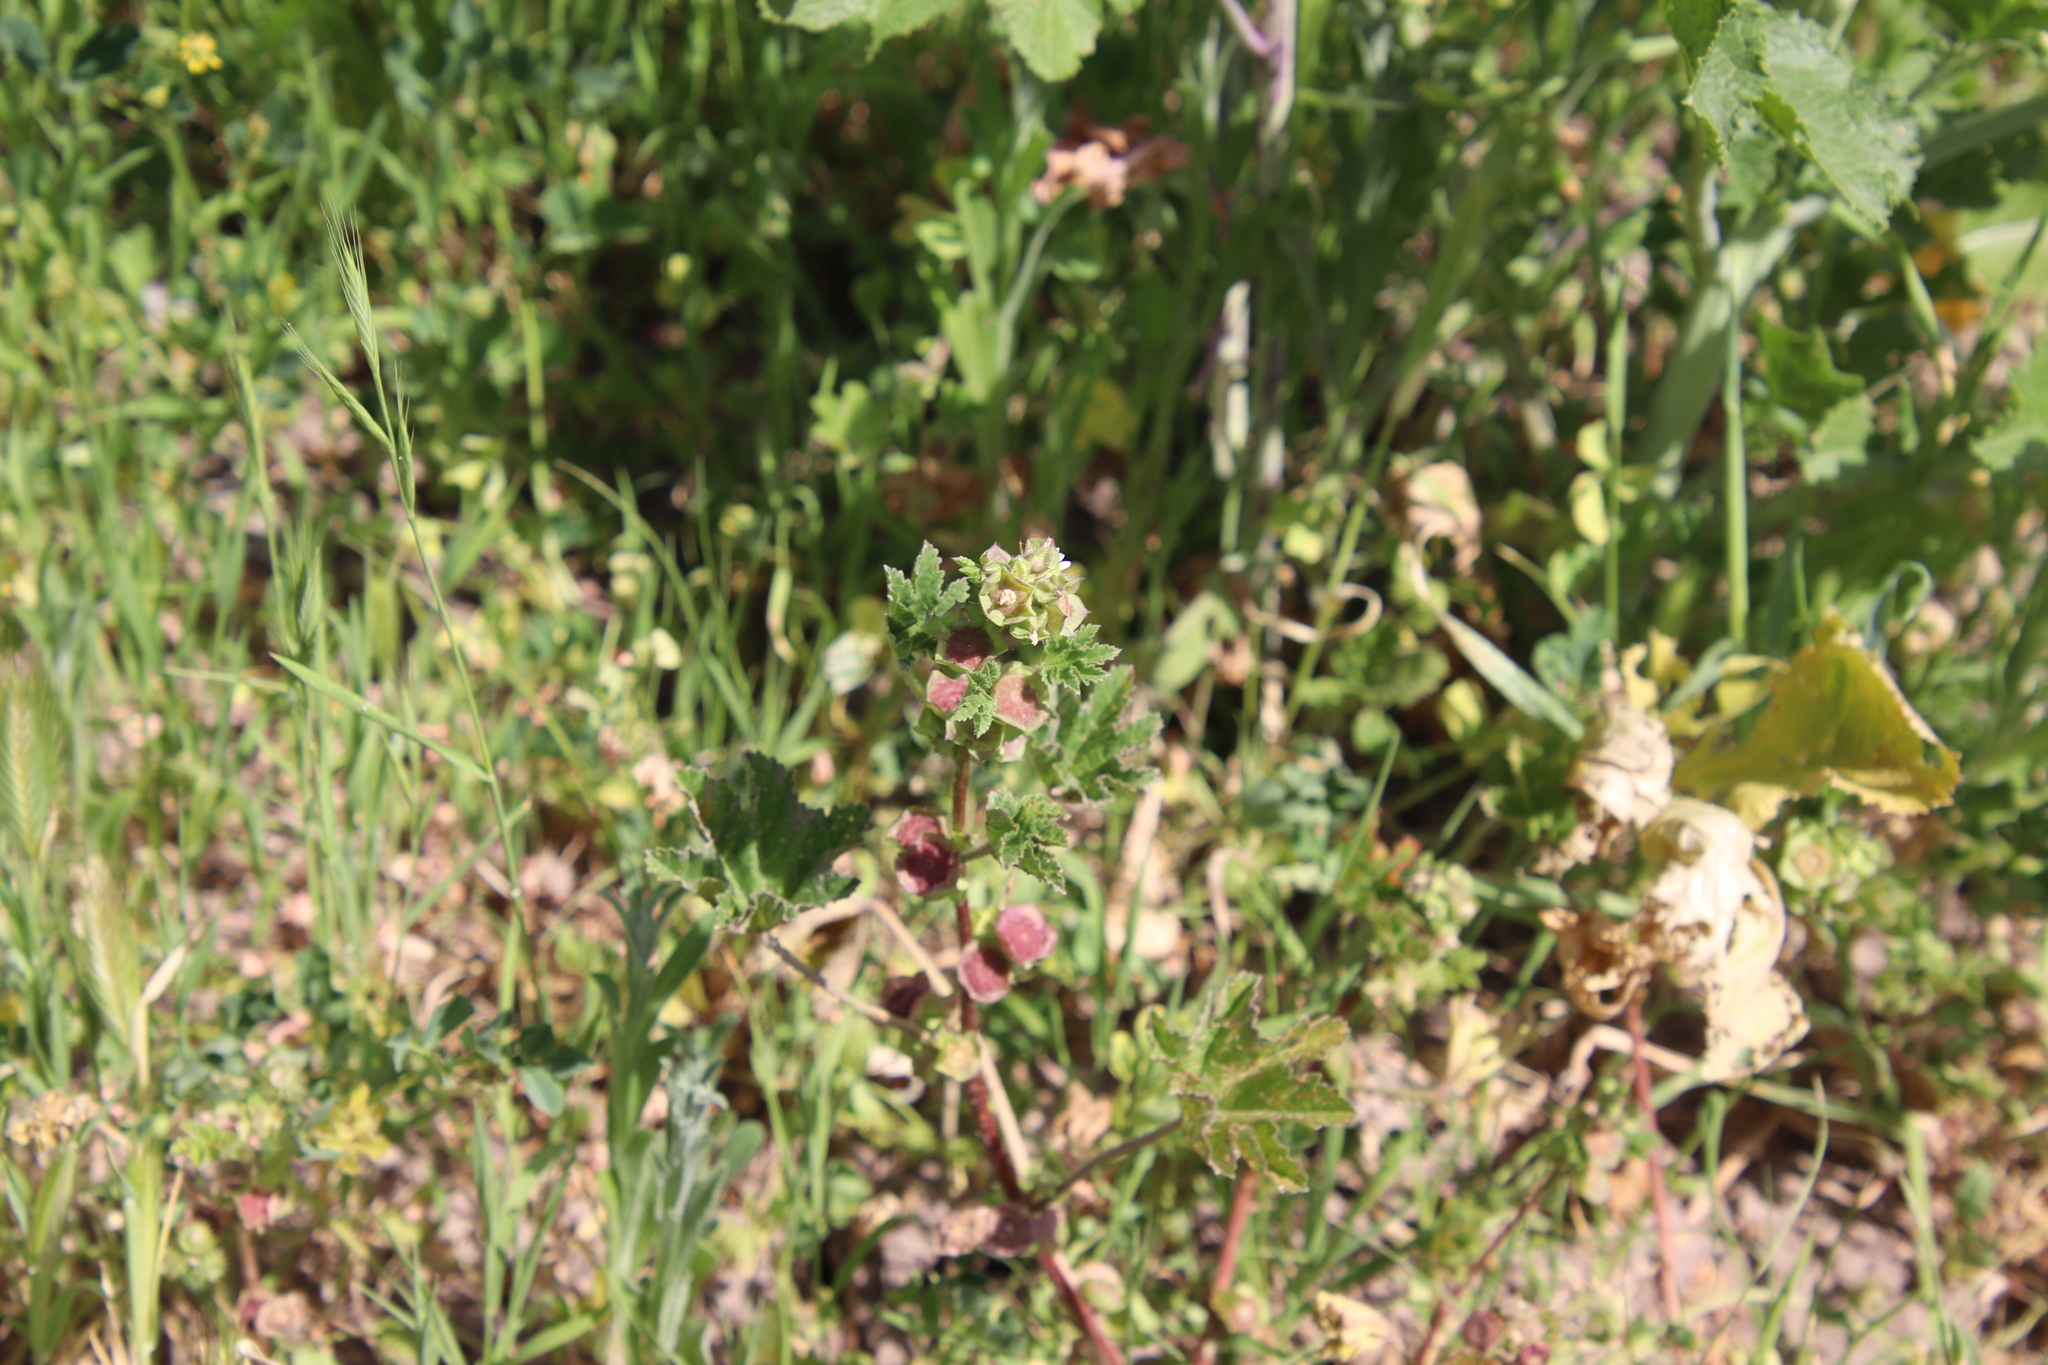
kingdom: Plantae
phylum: Tracheophyta
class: Magnoliopsida
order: Malvales
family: Malvaceae
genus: Malva
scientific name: Malva parviflora
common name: Least mallow
